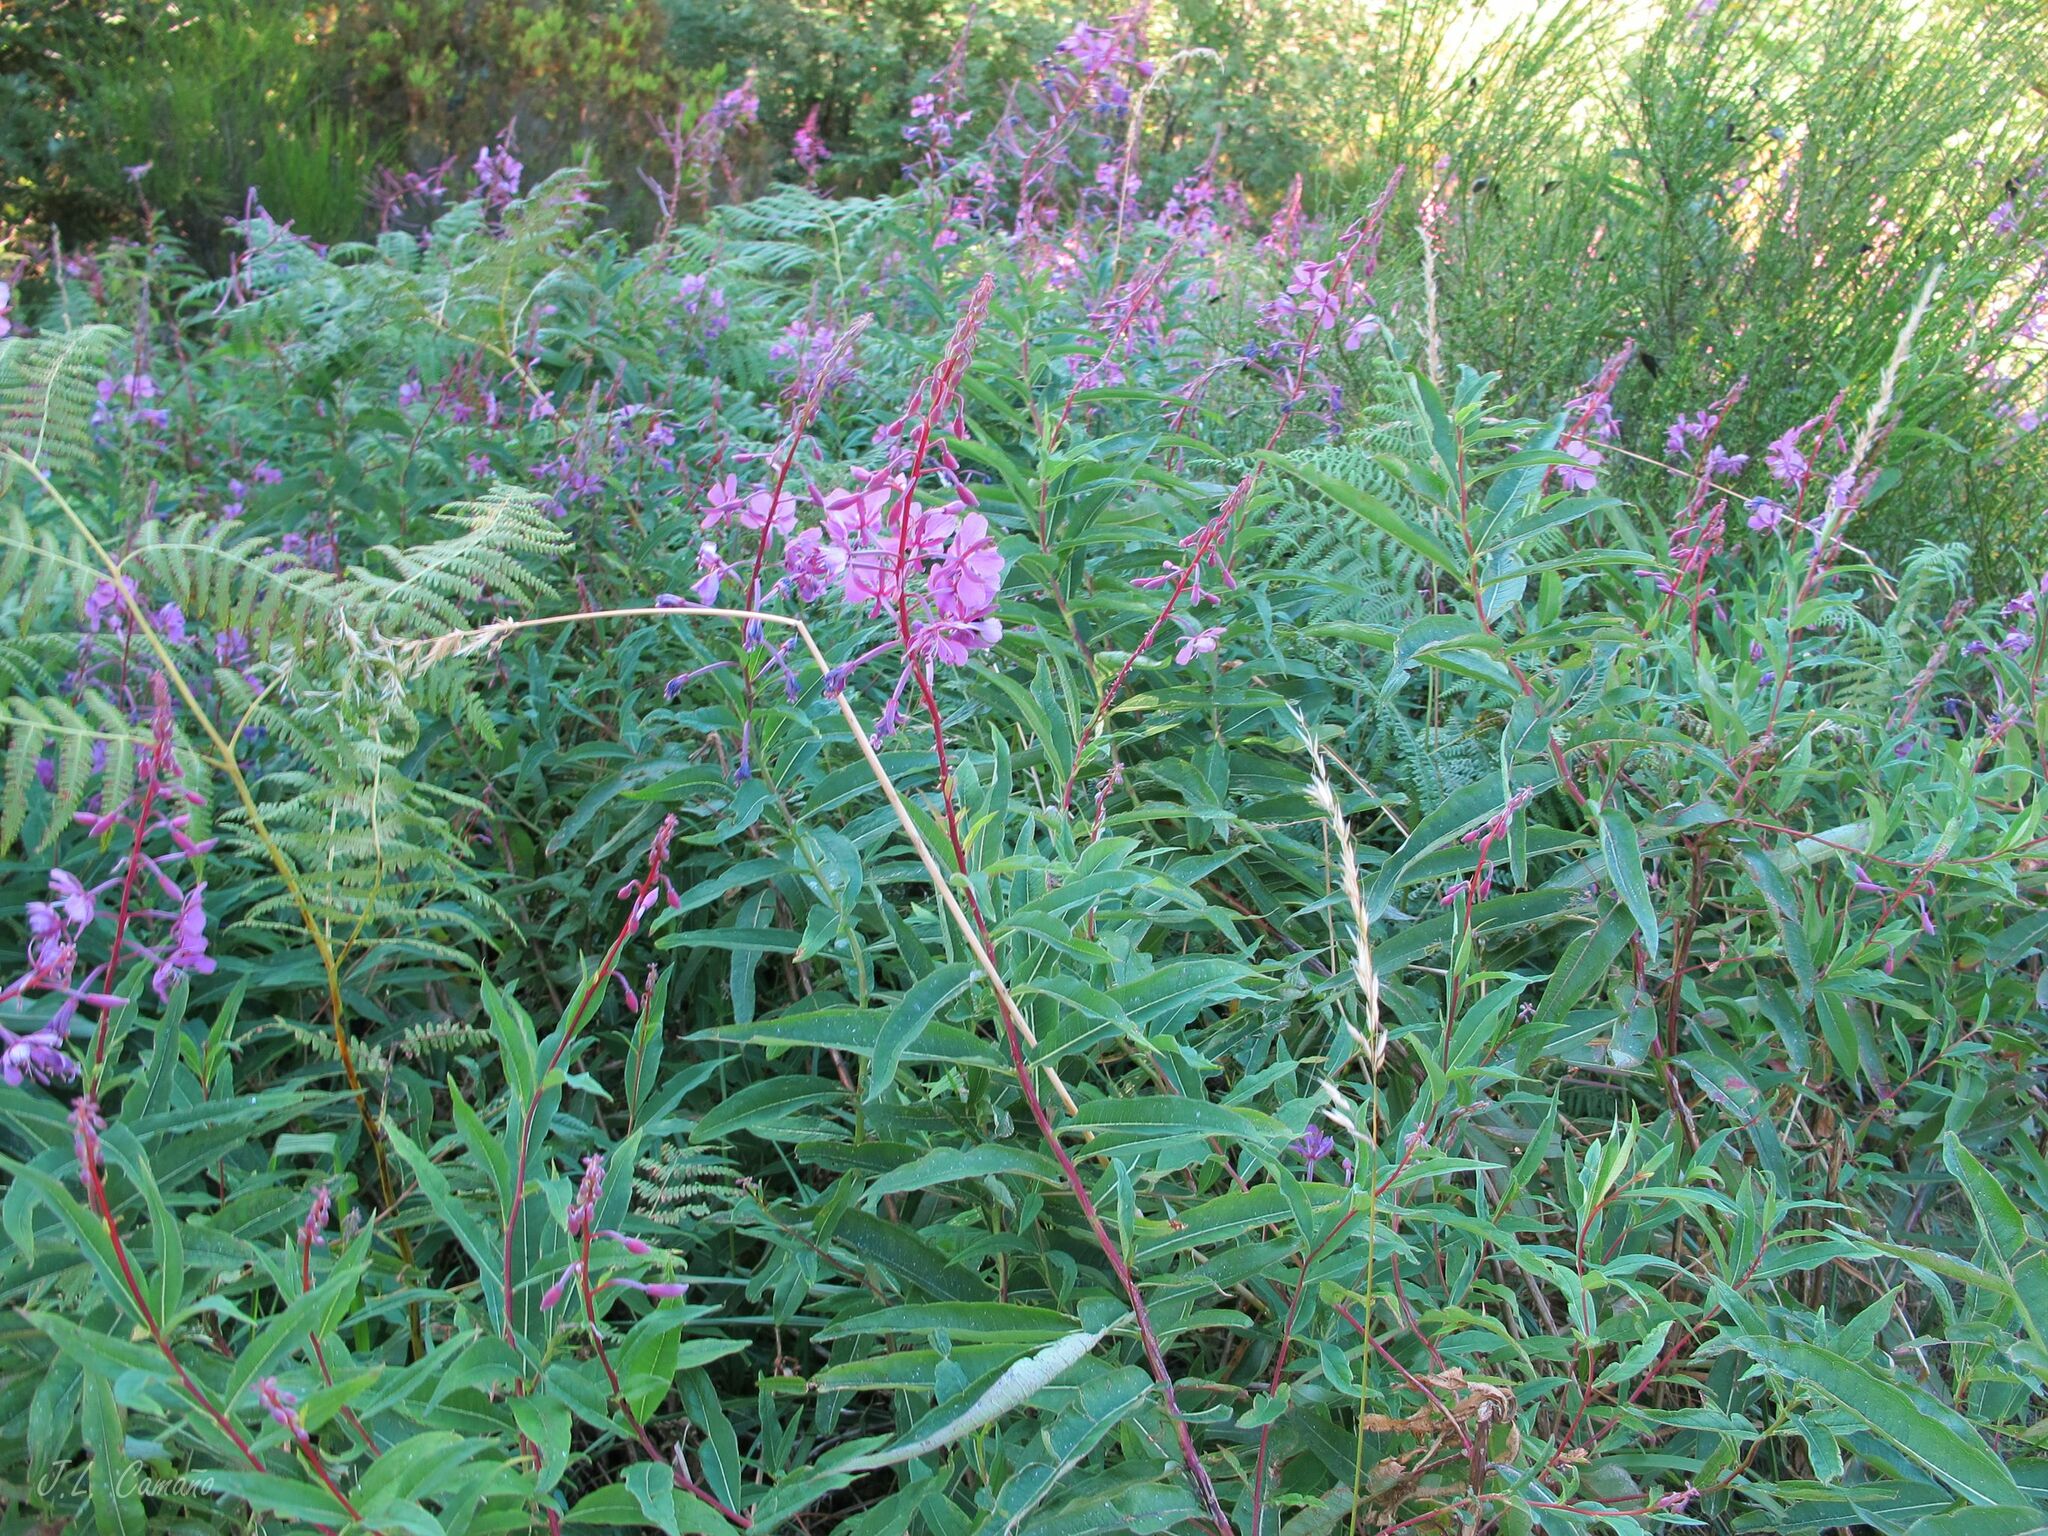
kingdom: Plantae
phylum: Tracheophyta
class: Magnoliopsida
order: Myrtales
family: Onagraceae
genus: Chamaenerion
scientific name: Chamaenerion angustifolium
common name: Fireweed
